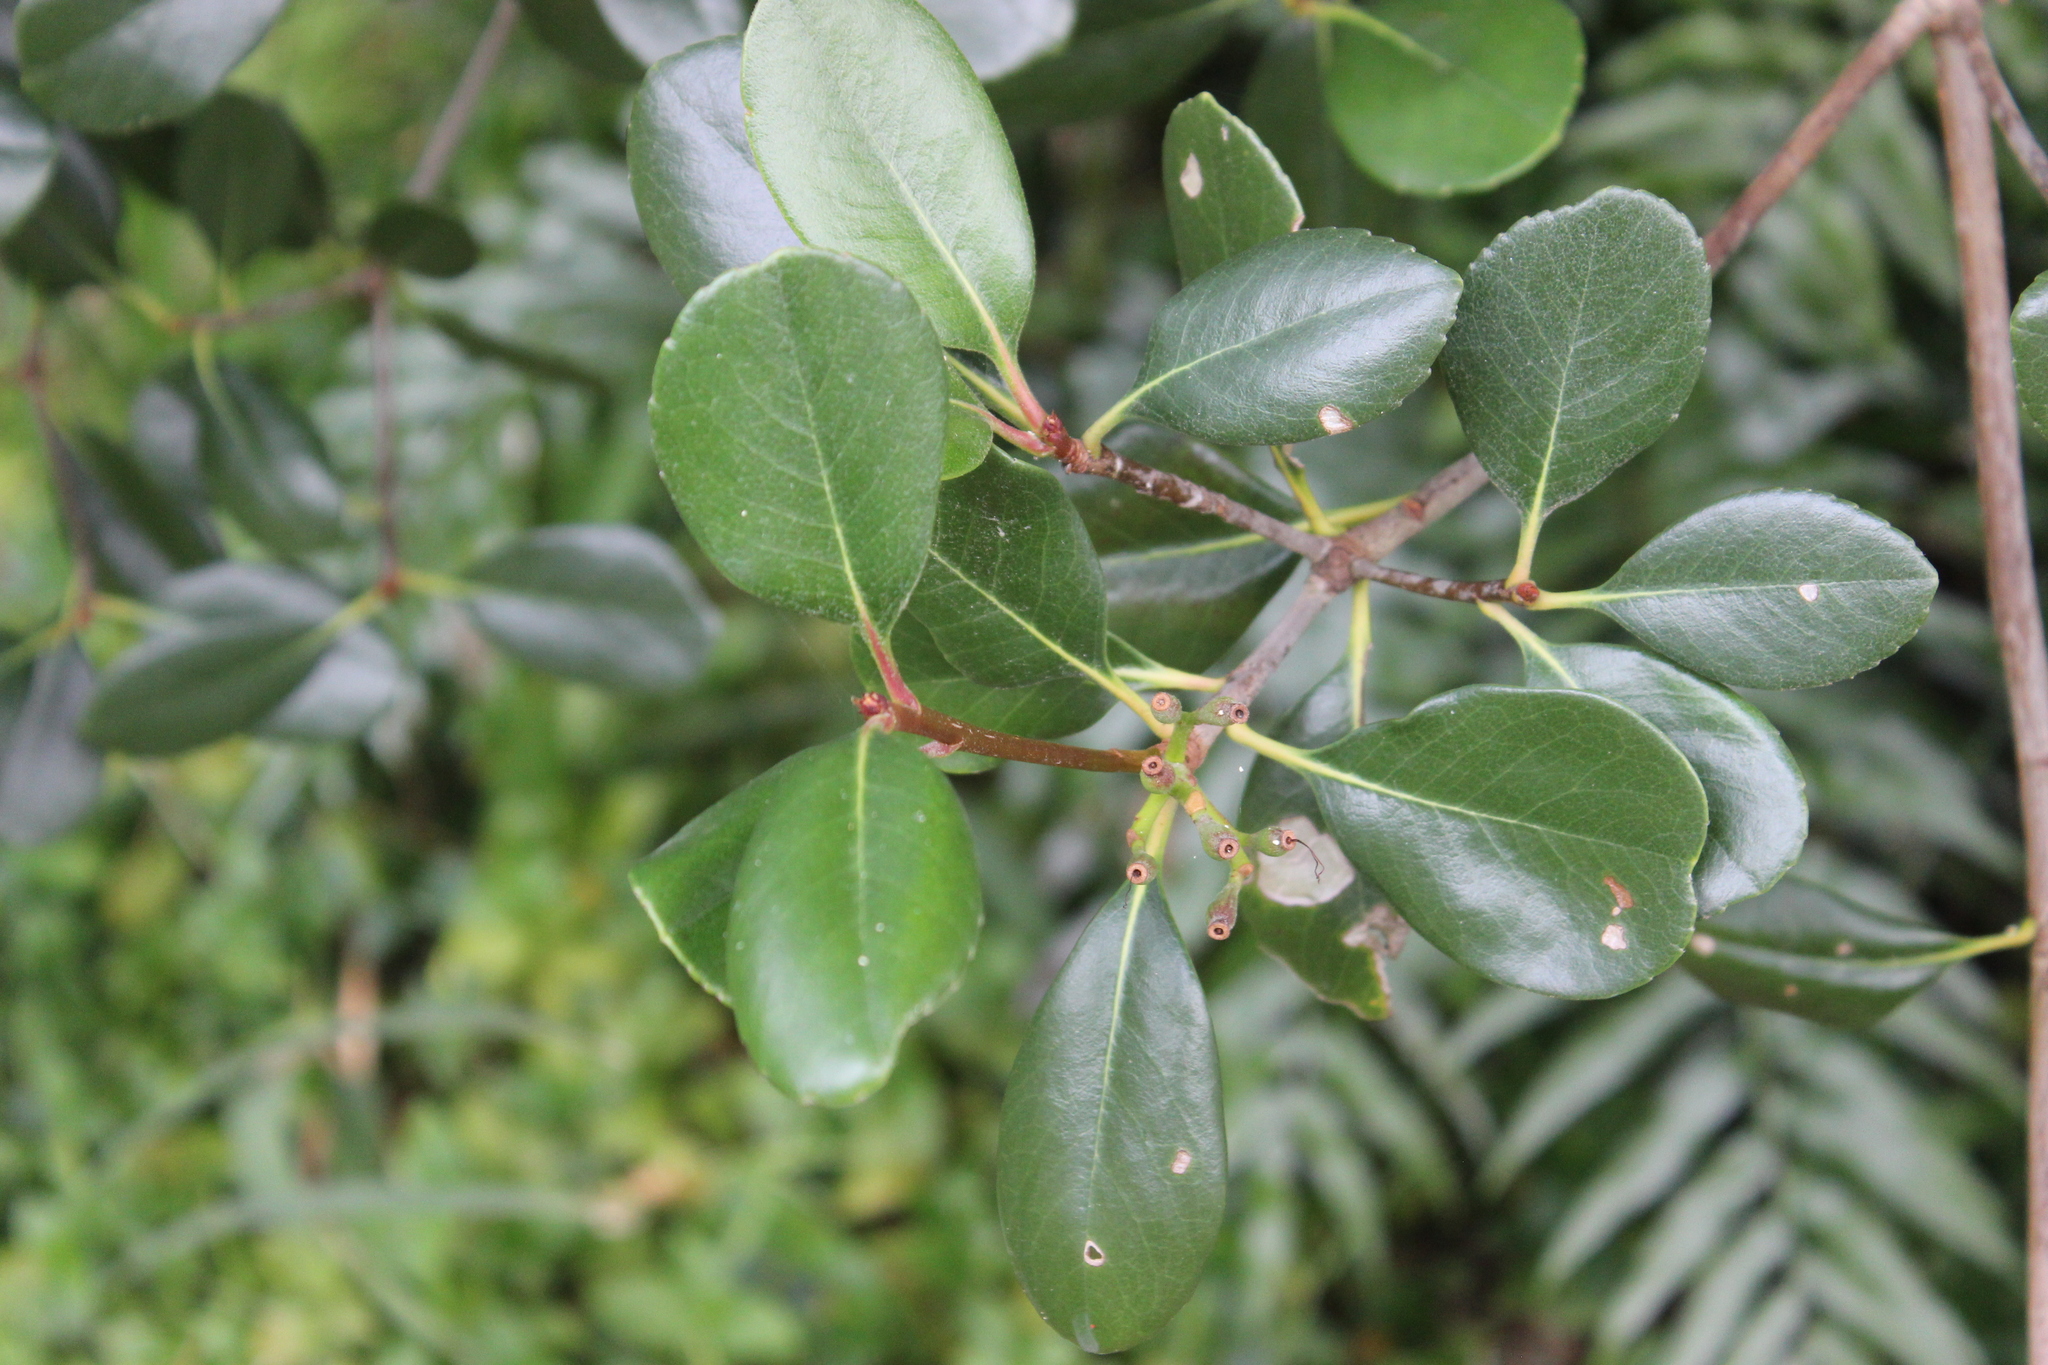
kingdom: Plantae
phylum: Tracheophyta
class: Magnoliopsida
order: Rosales
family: Rosaceae
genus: Rhaphiolepis
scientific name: Rhaphiolepis indica
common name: India-hawthorn
